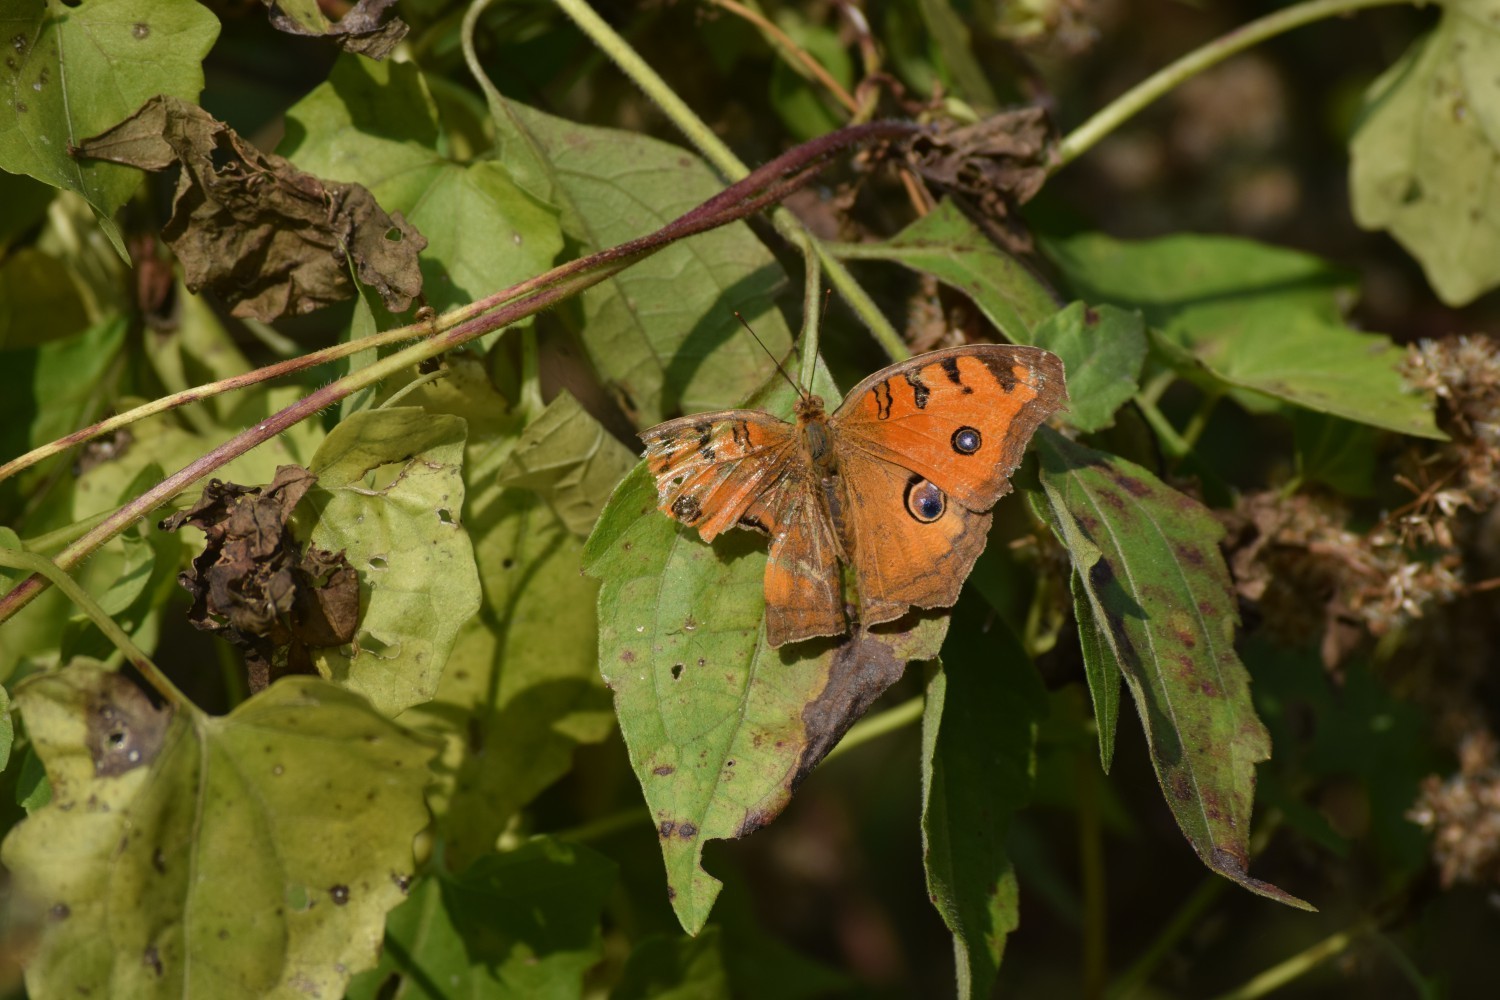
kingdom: Animalia
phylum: Arthropoda
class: Insecta
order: Lepidoptera
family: Nymphalidae
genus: Junonia
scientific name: Junonia almana
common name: Peacock pansy
